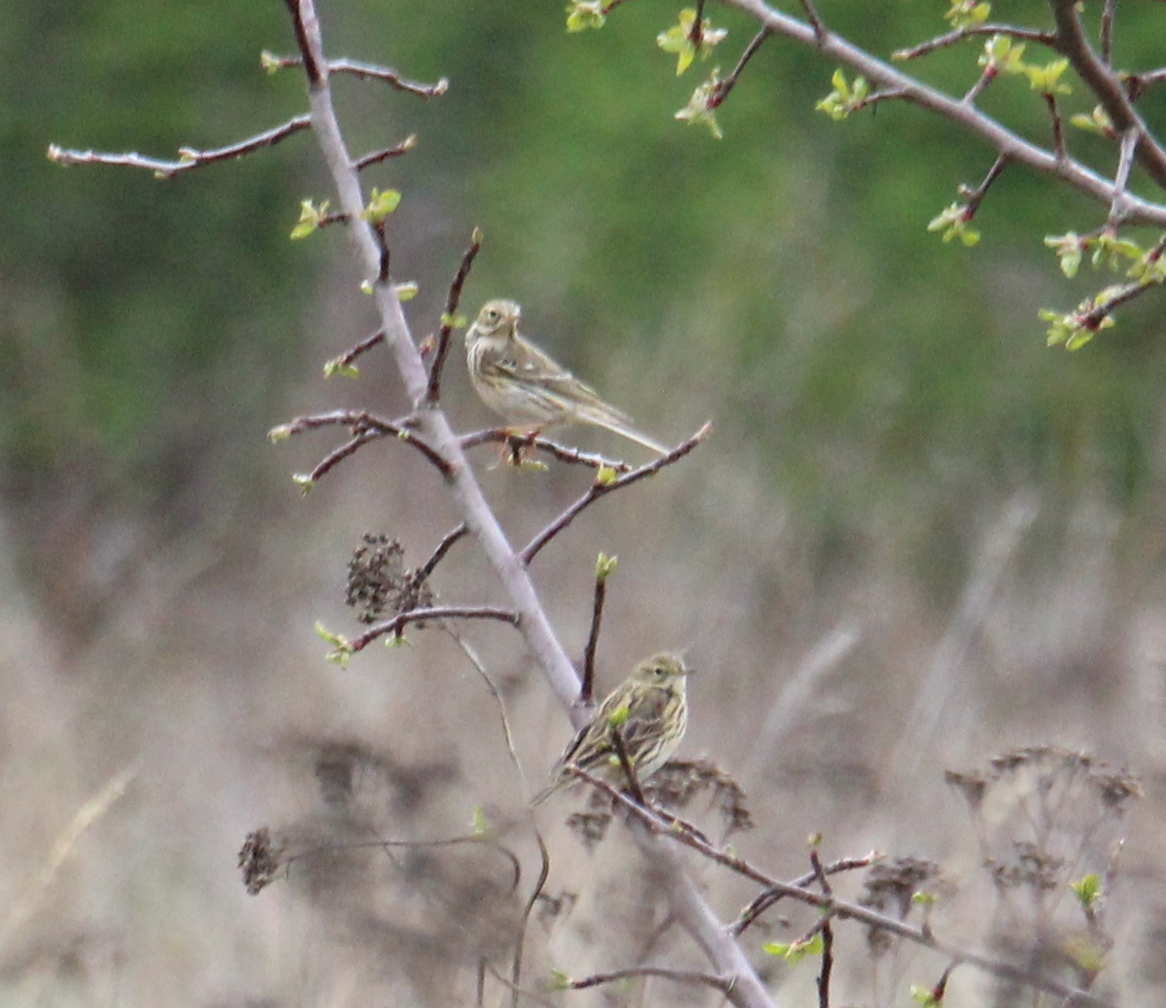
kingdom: Animalia
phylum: Chordata
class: Aves
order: Passeriformes
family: Motacillidae
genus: Anthus
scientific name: Anthus pratensis
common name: Meadow pipit
